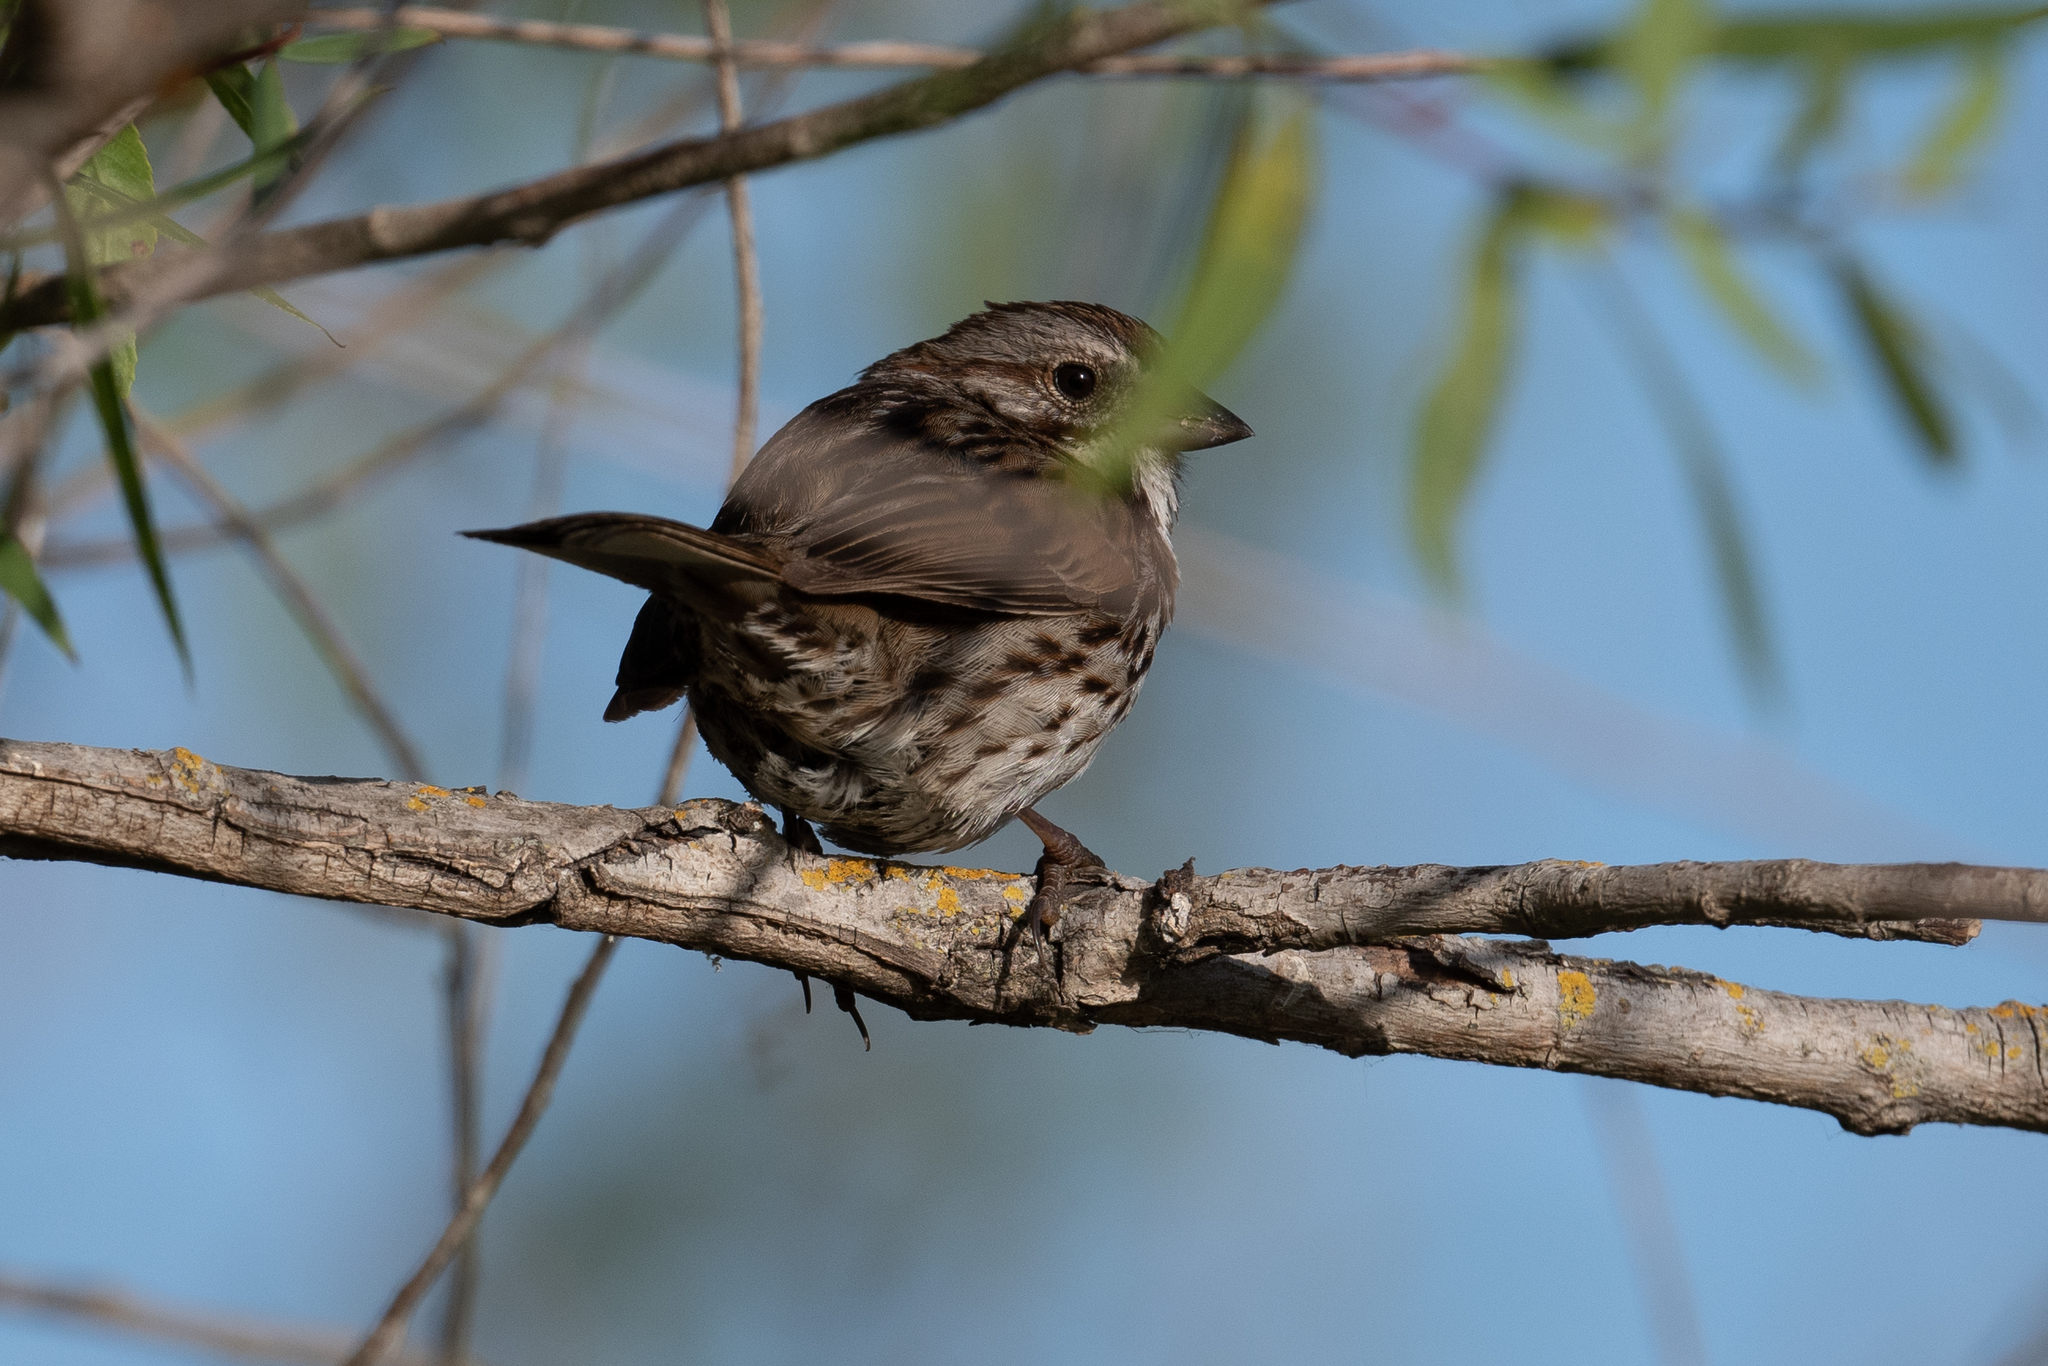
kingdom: Animalia
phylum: Chordata
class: Aves
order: Passeriformes
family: Passerellidae
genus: Melospiza
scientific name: Melospiza melodia
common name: Song sparrow
